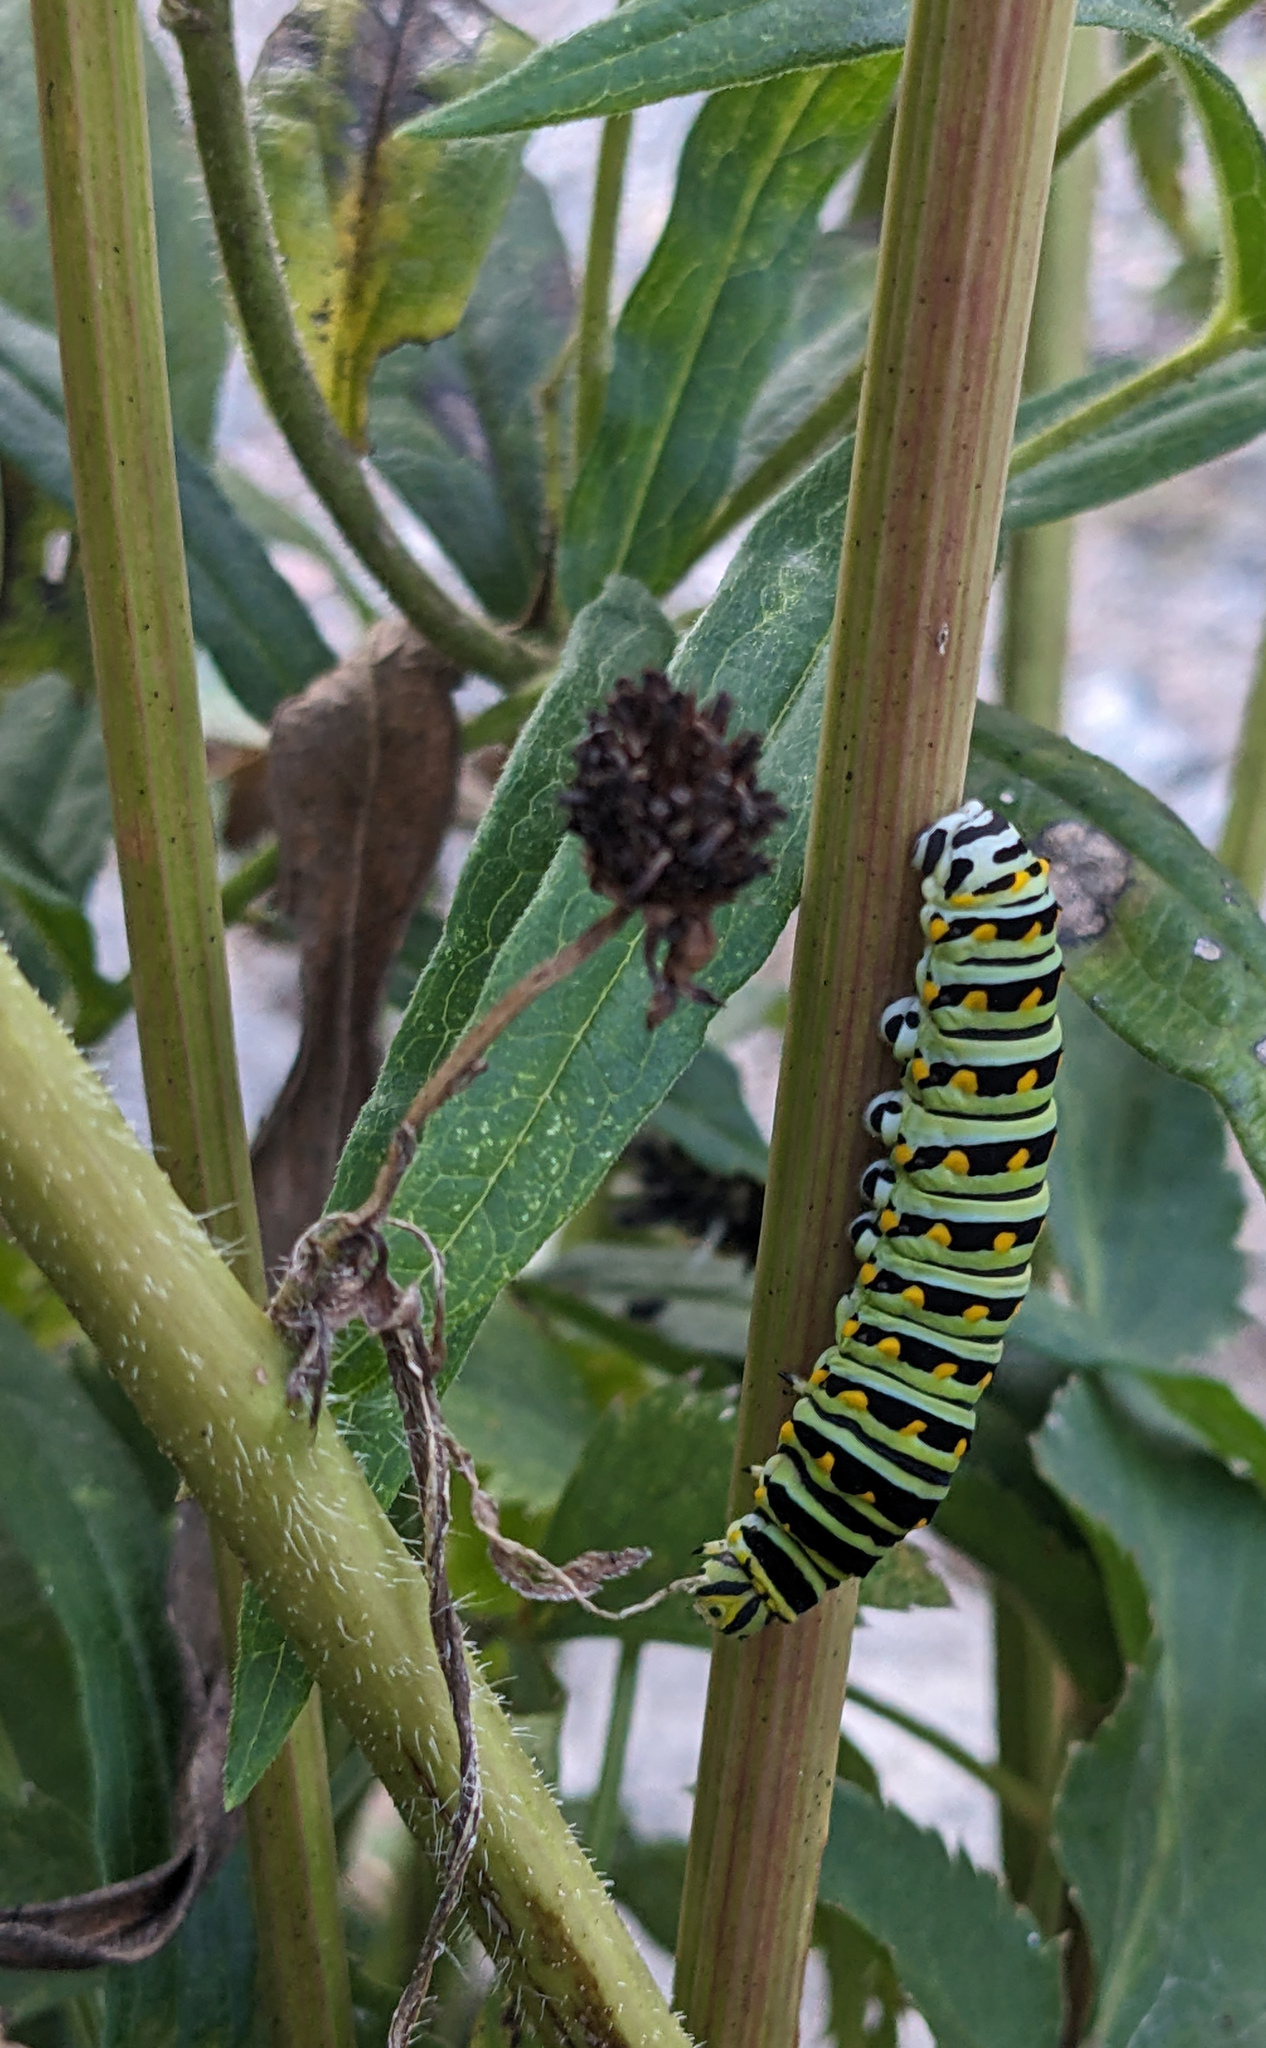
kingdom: Animalia
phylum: Arthropoda
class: Insecta
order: Lepidoptera
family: Papilionidae
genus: Papilio
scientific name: Papilio polyxenes
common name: Black swallowtail
